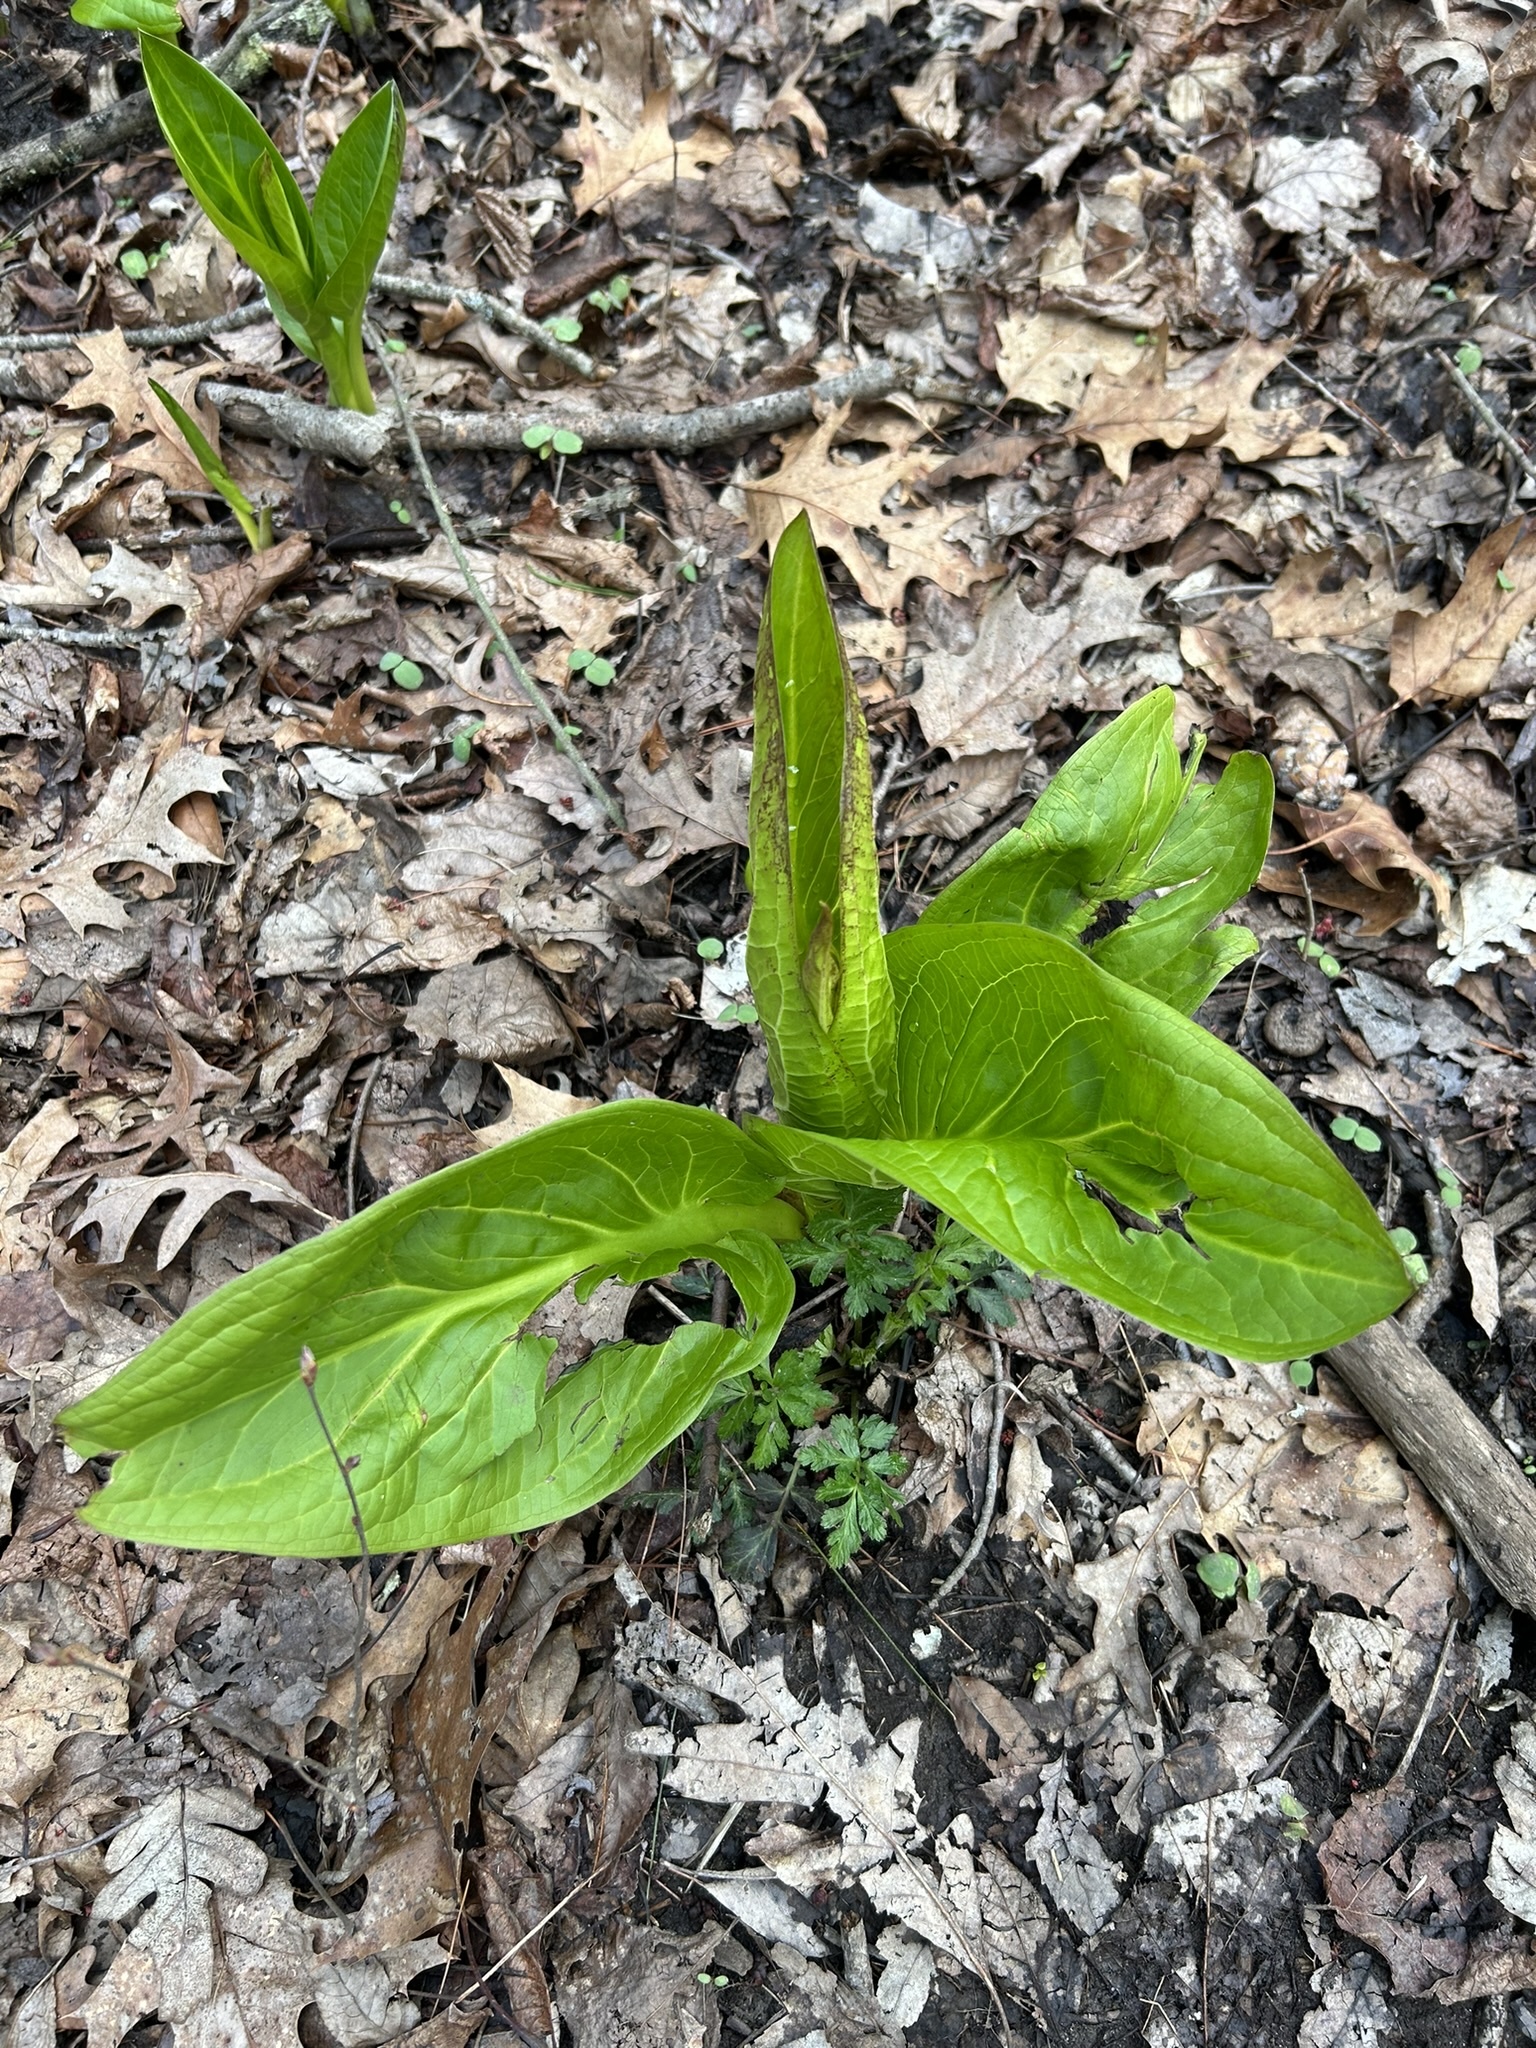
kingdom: Plantae
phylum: Tracheophyta
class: Liliopsida
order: Alismatales
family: Araceae
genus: Symplocarpus
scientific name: Symplocarpus foetidus
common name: Eastern skunk cabbage
